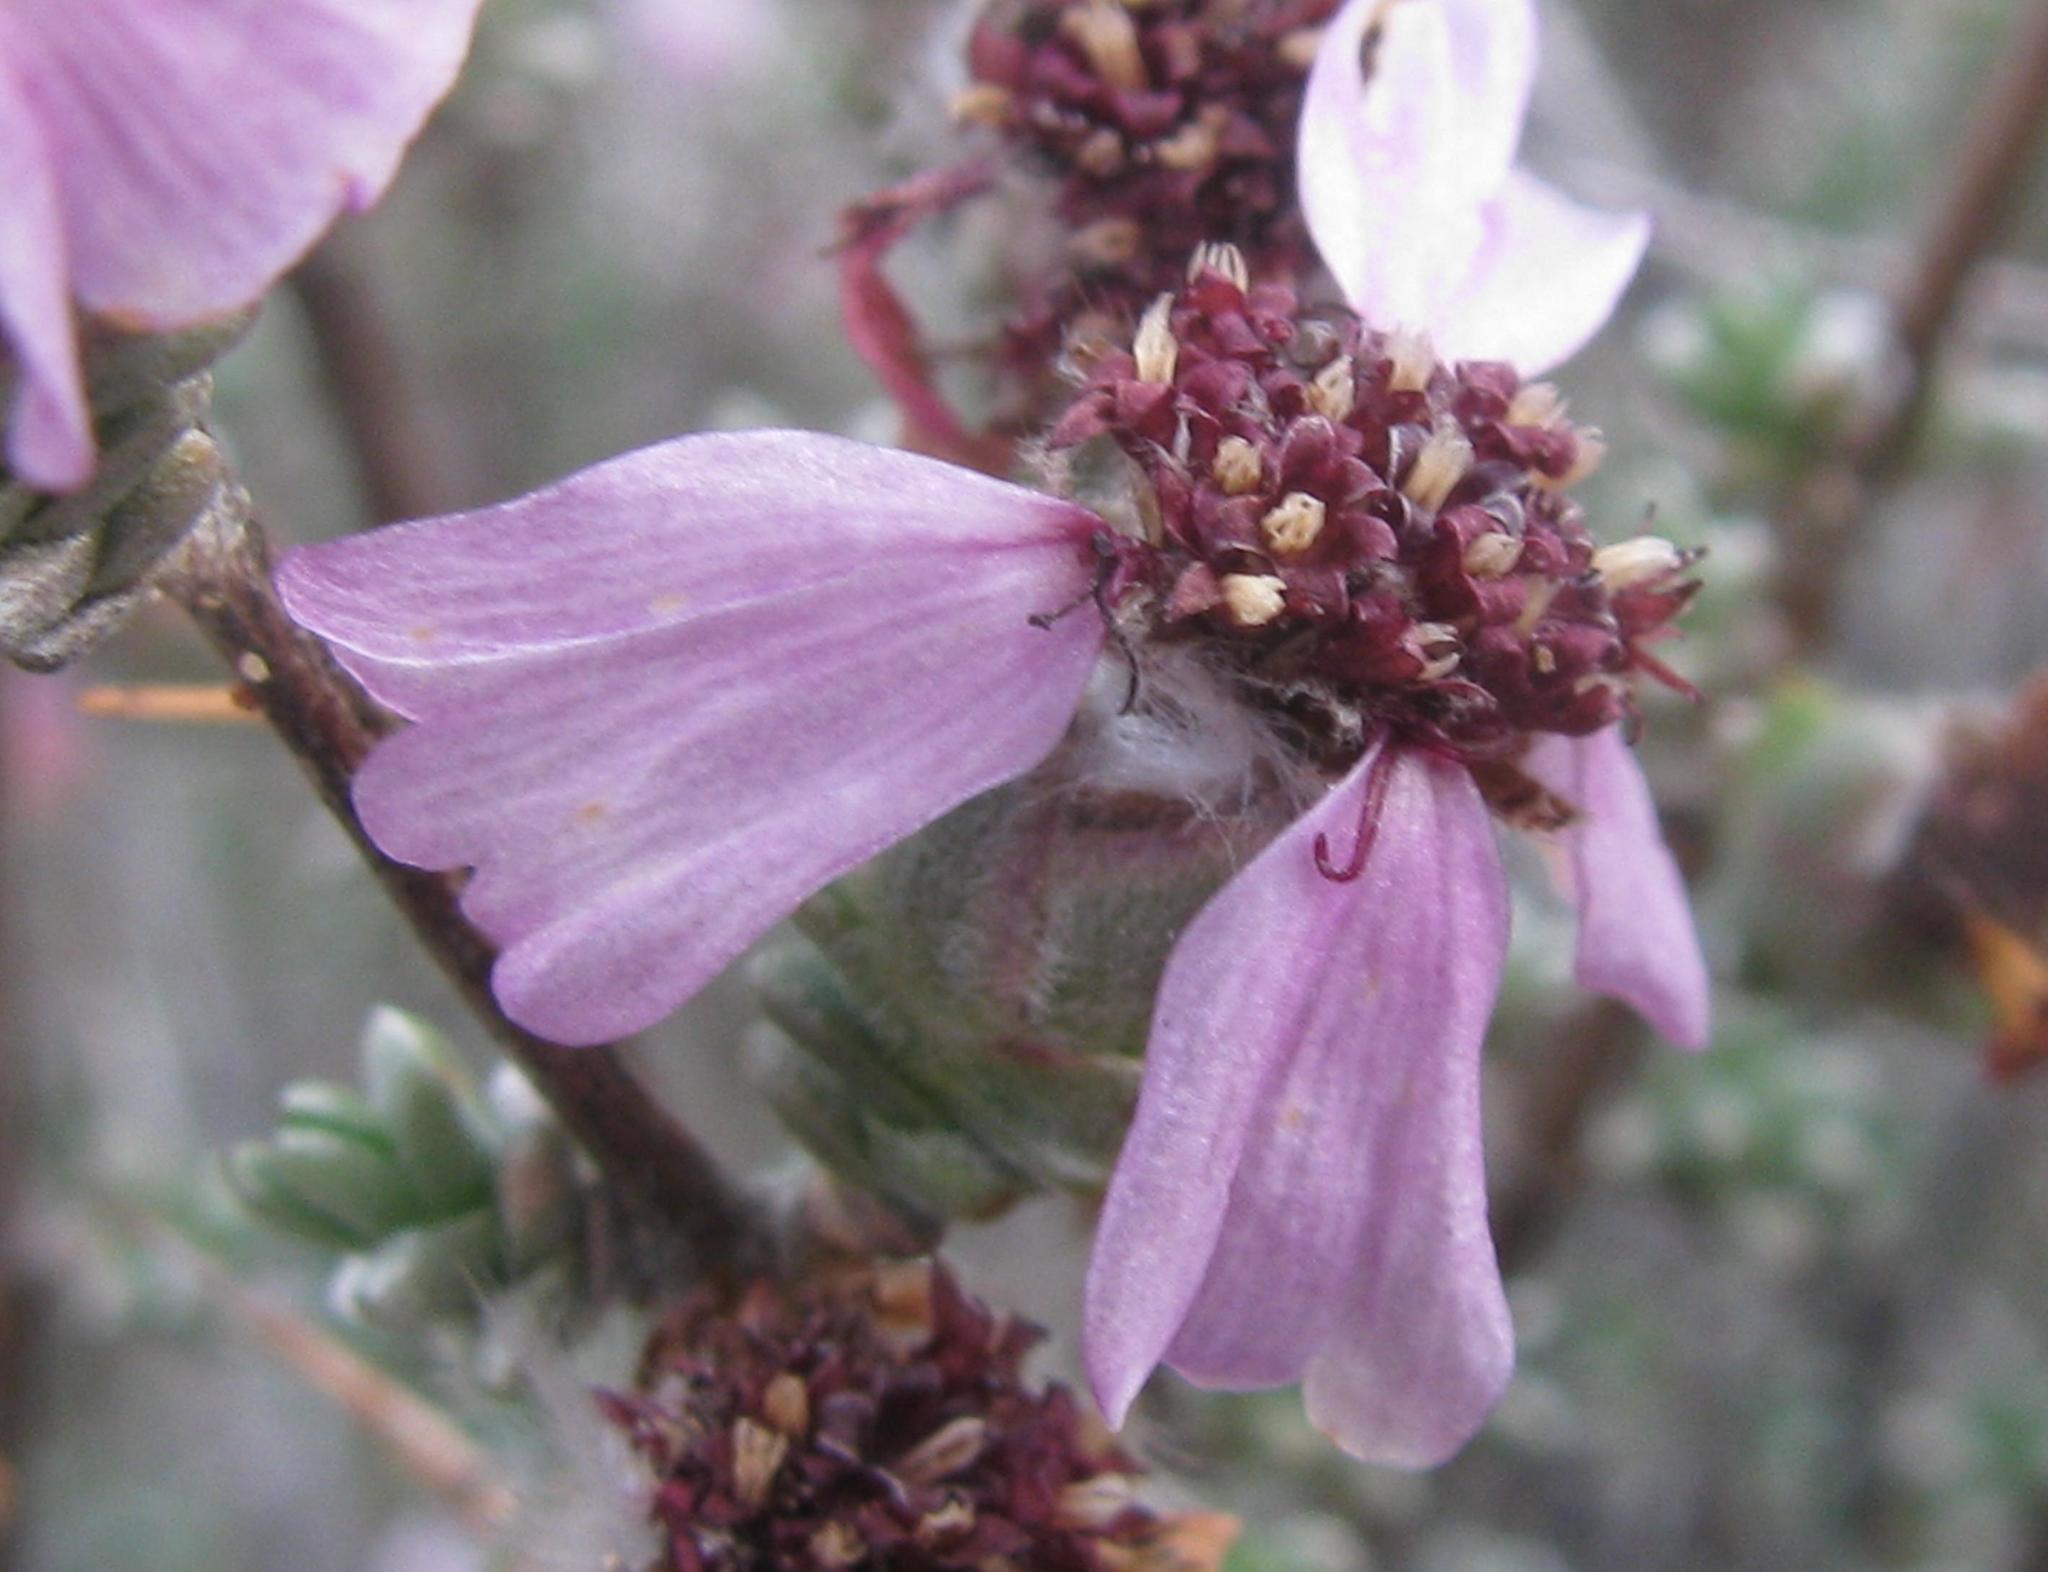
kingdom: Plantae
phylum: Tracheophyta
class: Magnoliopsida
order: Asterales
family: Asteraceae
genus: Eriocephalus
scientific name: Eriocephalus eximius
